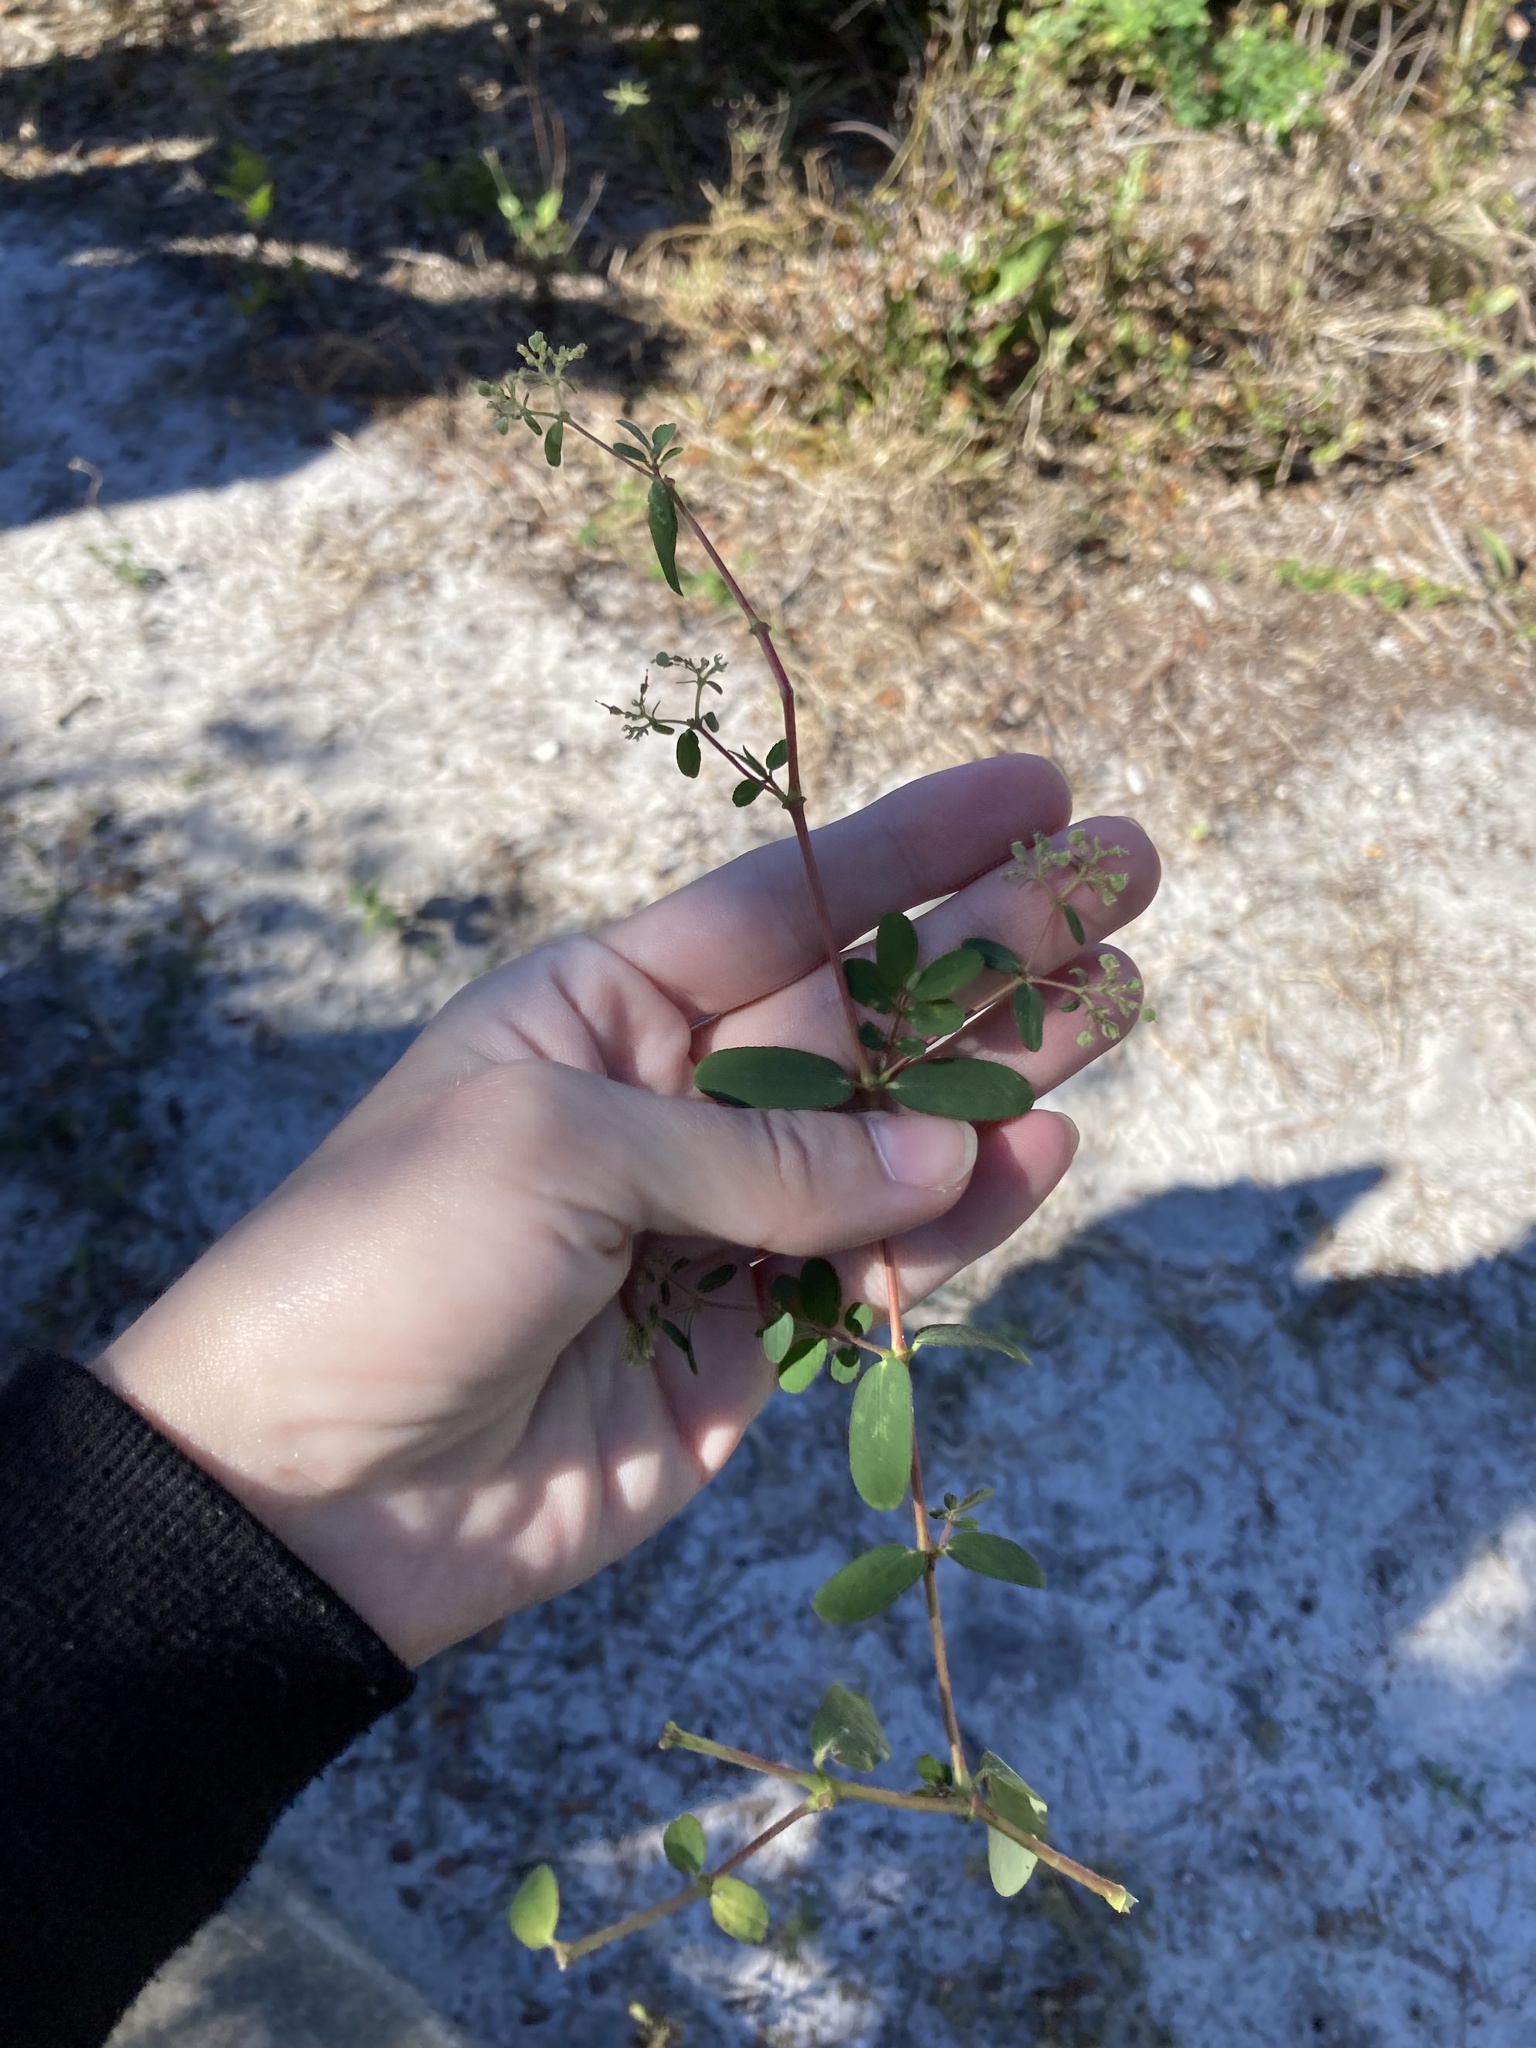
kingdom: Plantae
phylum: Tracheophyta
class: Magnoliopsida
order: Malpighiales
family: Euphorbiaceae
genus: Euphorbia
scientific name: Euphorbia lasiocarpa
